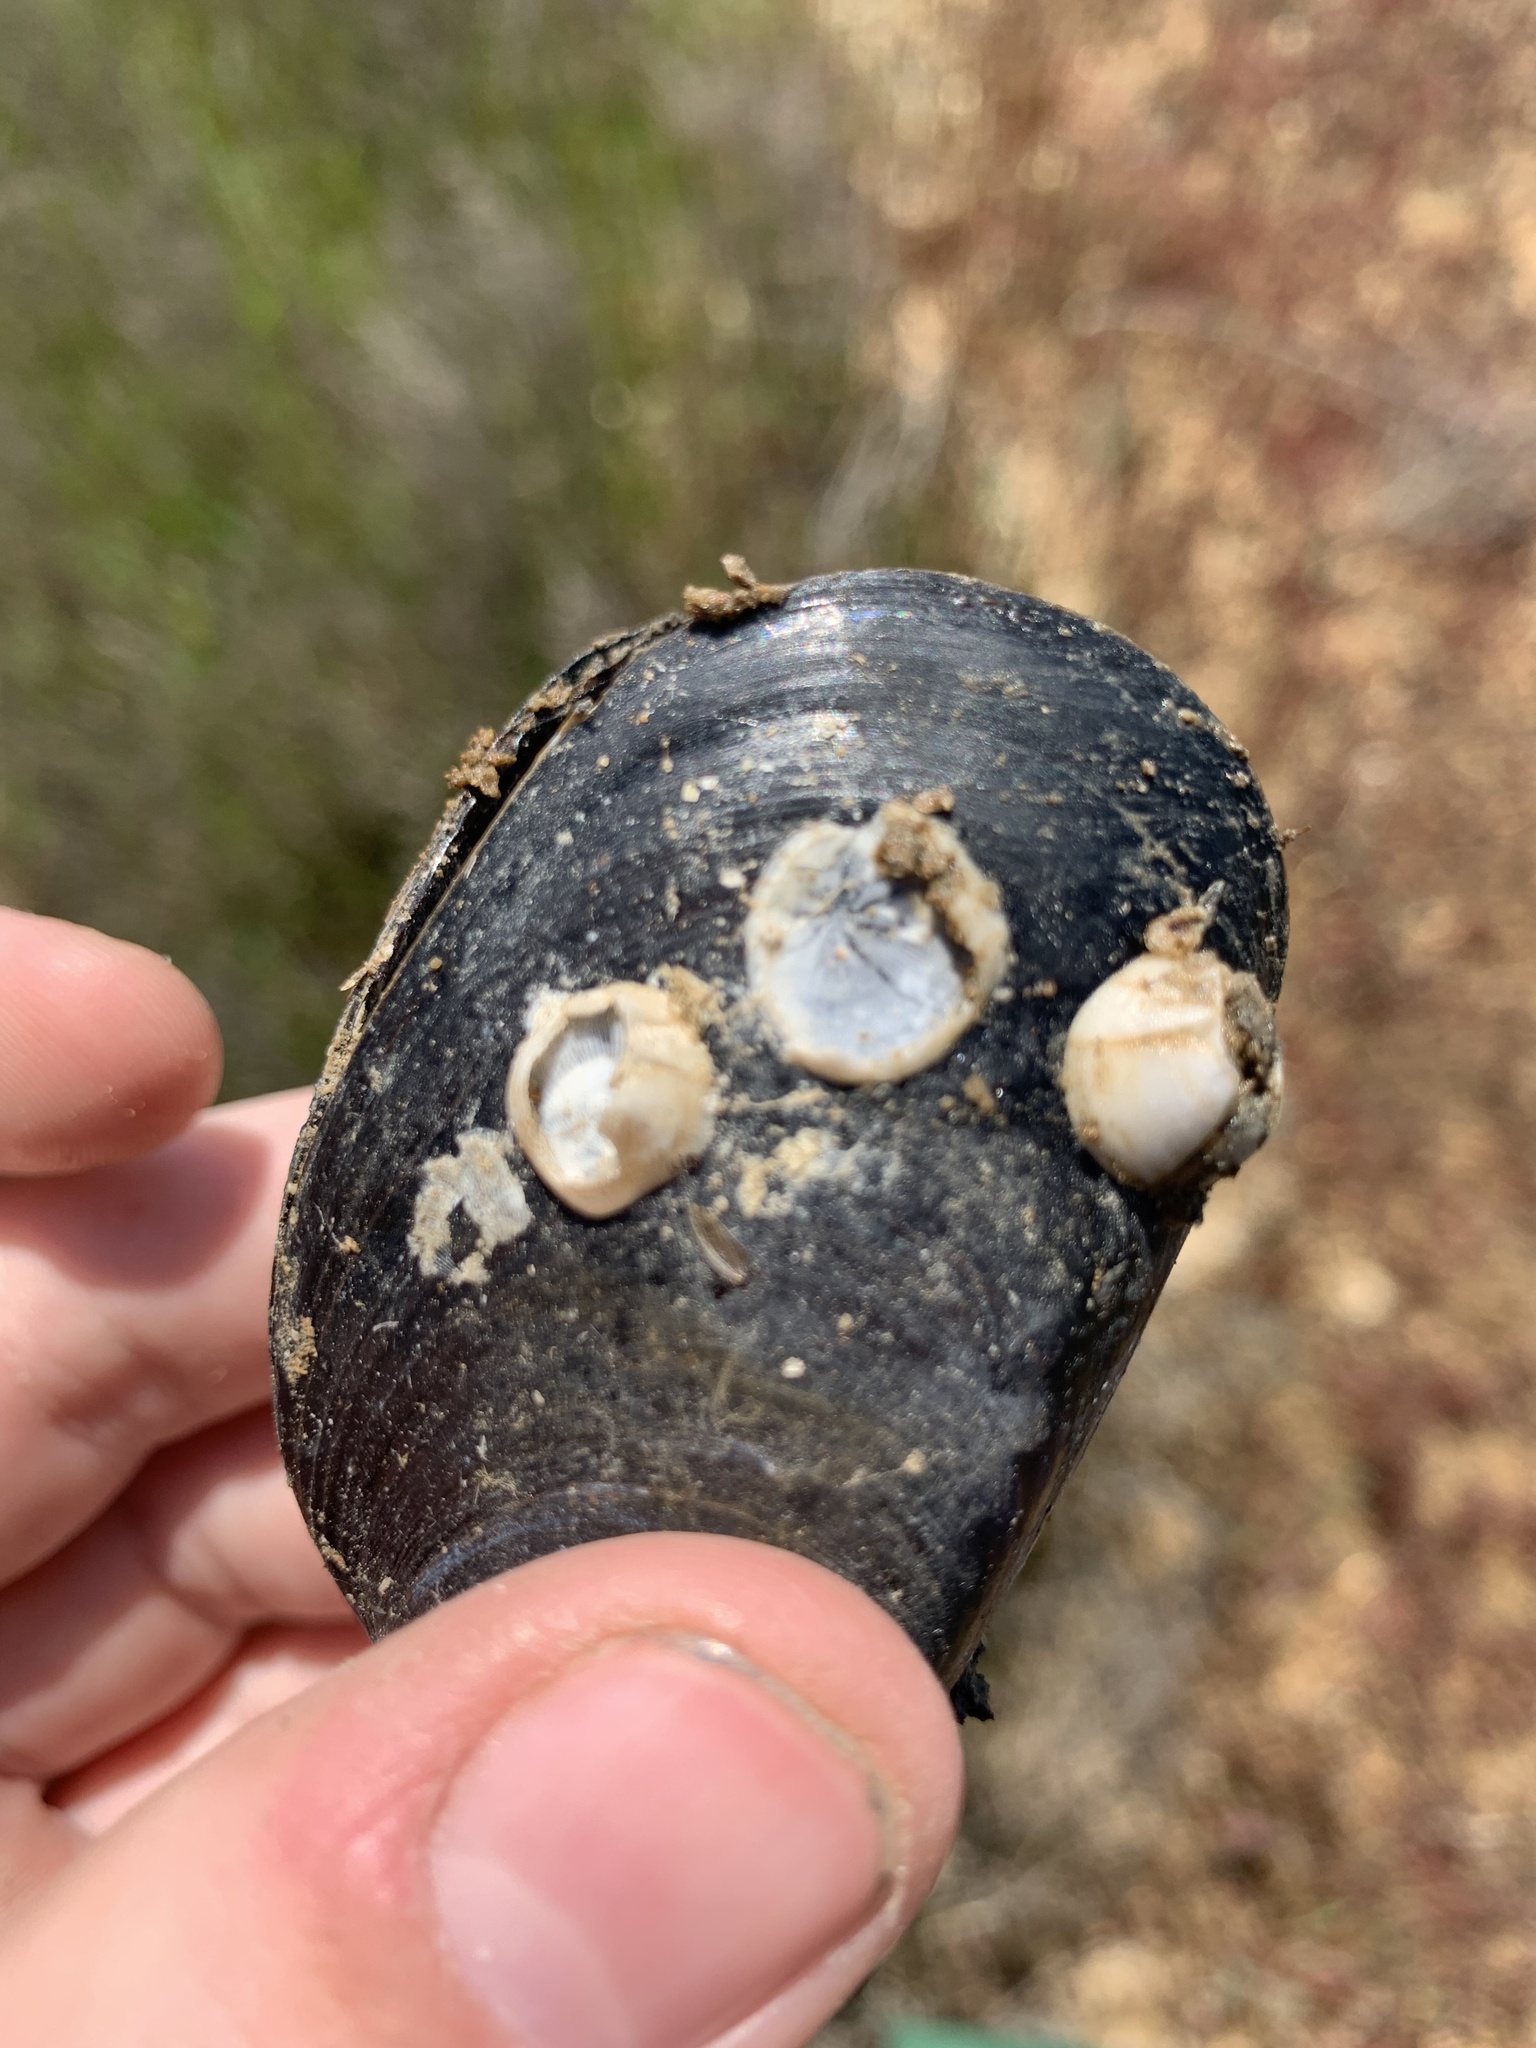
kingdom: Animalia
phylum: Arthropoda
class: Maxillopoda
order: Sessilia
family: Balanidae
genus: Amphibalanus
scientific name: Amphibalanus improvisus
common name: Bay barnacle
